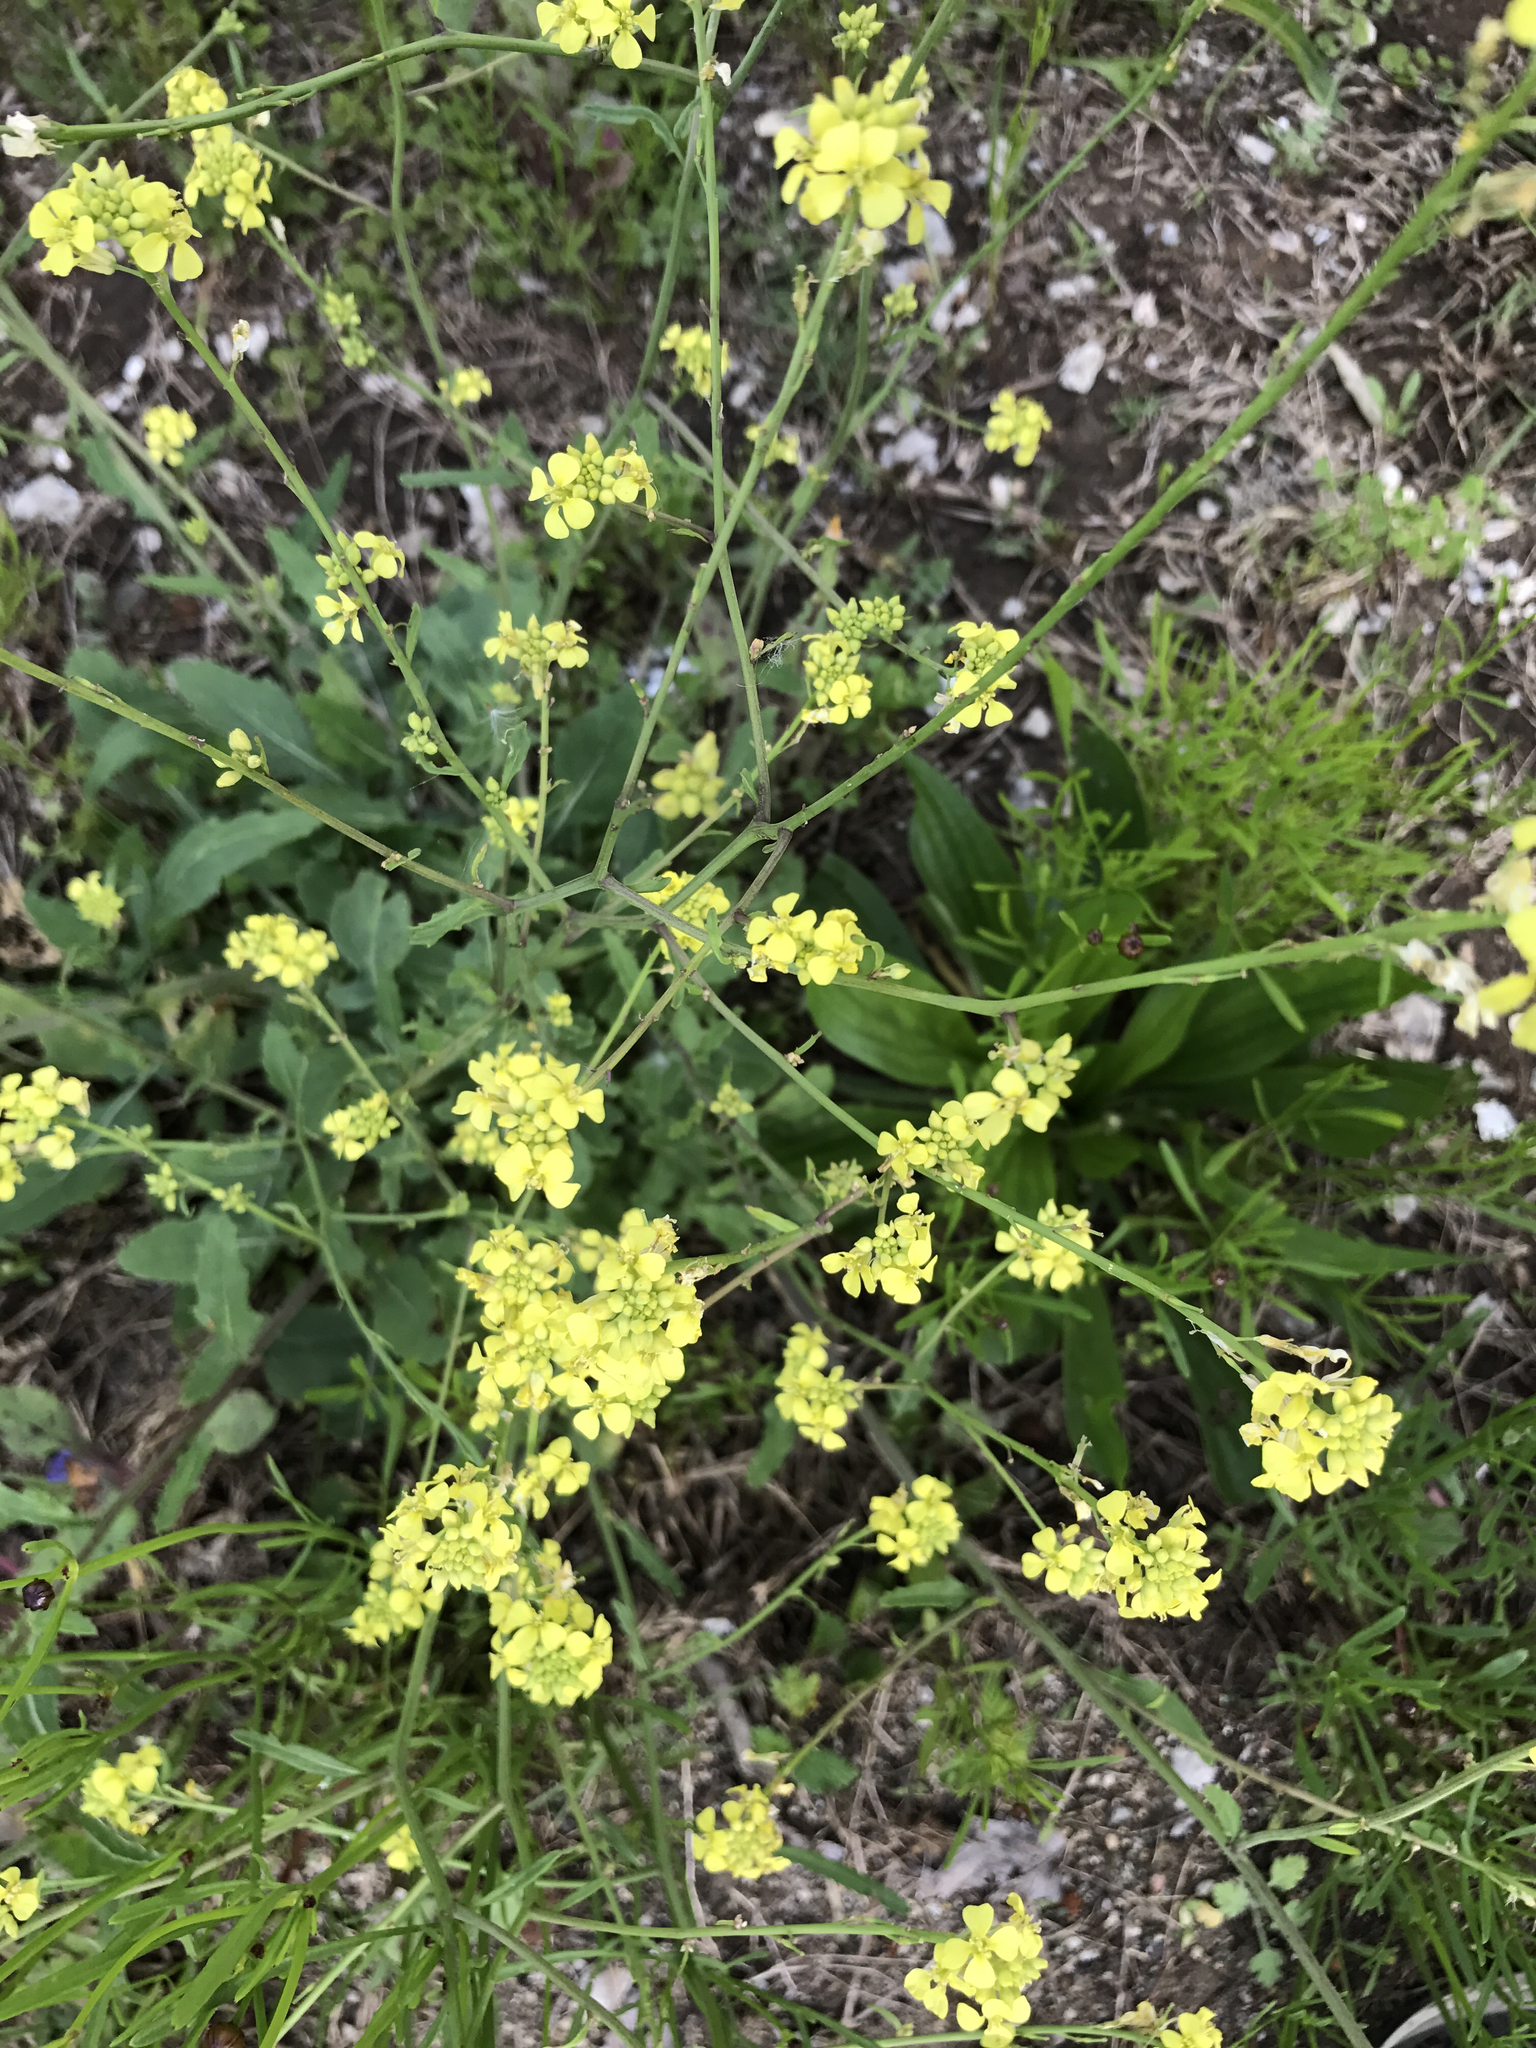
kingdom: Plantae
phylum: Tracheophyta
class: Magnoliopsida
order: Brassicales
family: Brassicaceae
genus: Rapistrum
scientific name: Rapistrum rugosum
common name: Annual bastardcabbage
